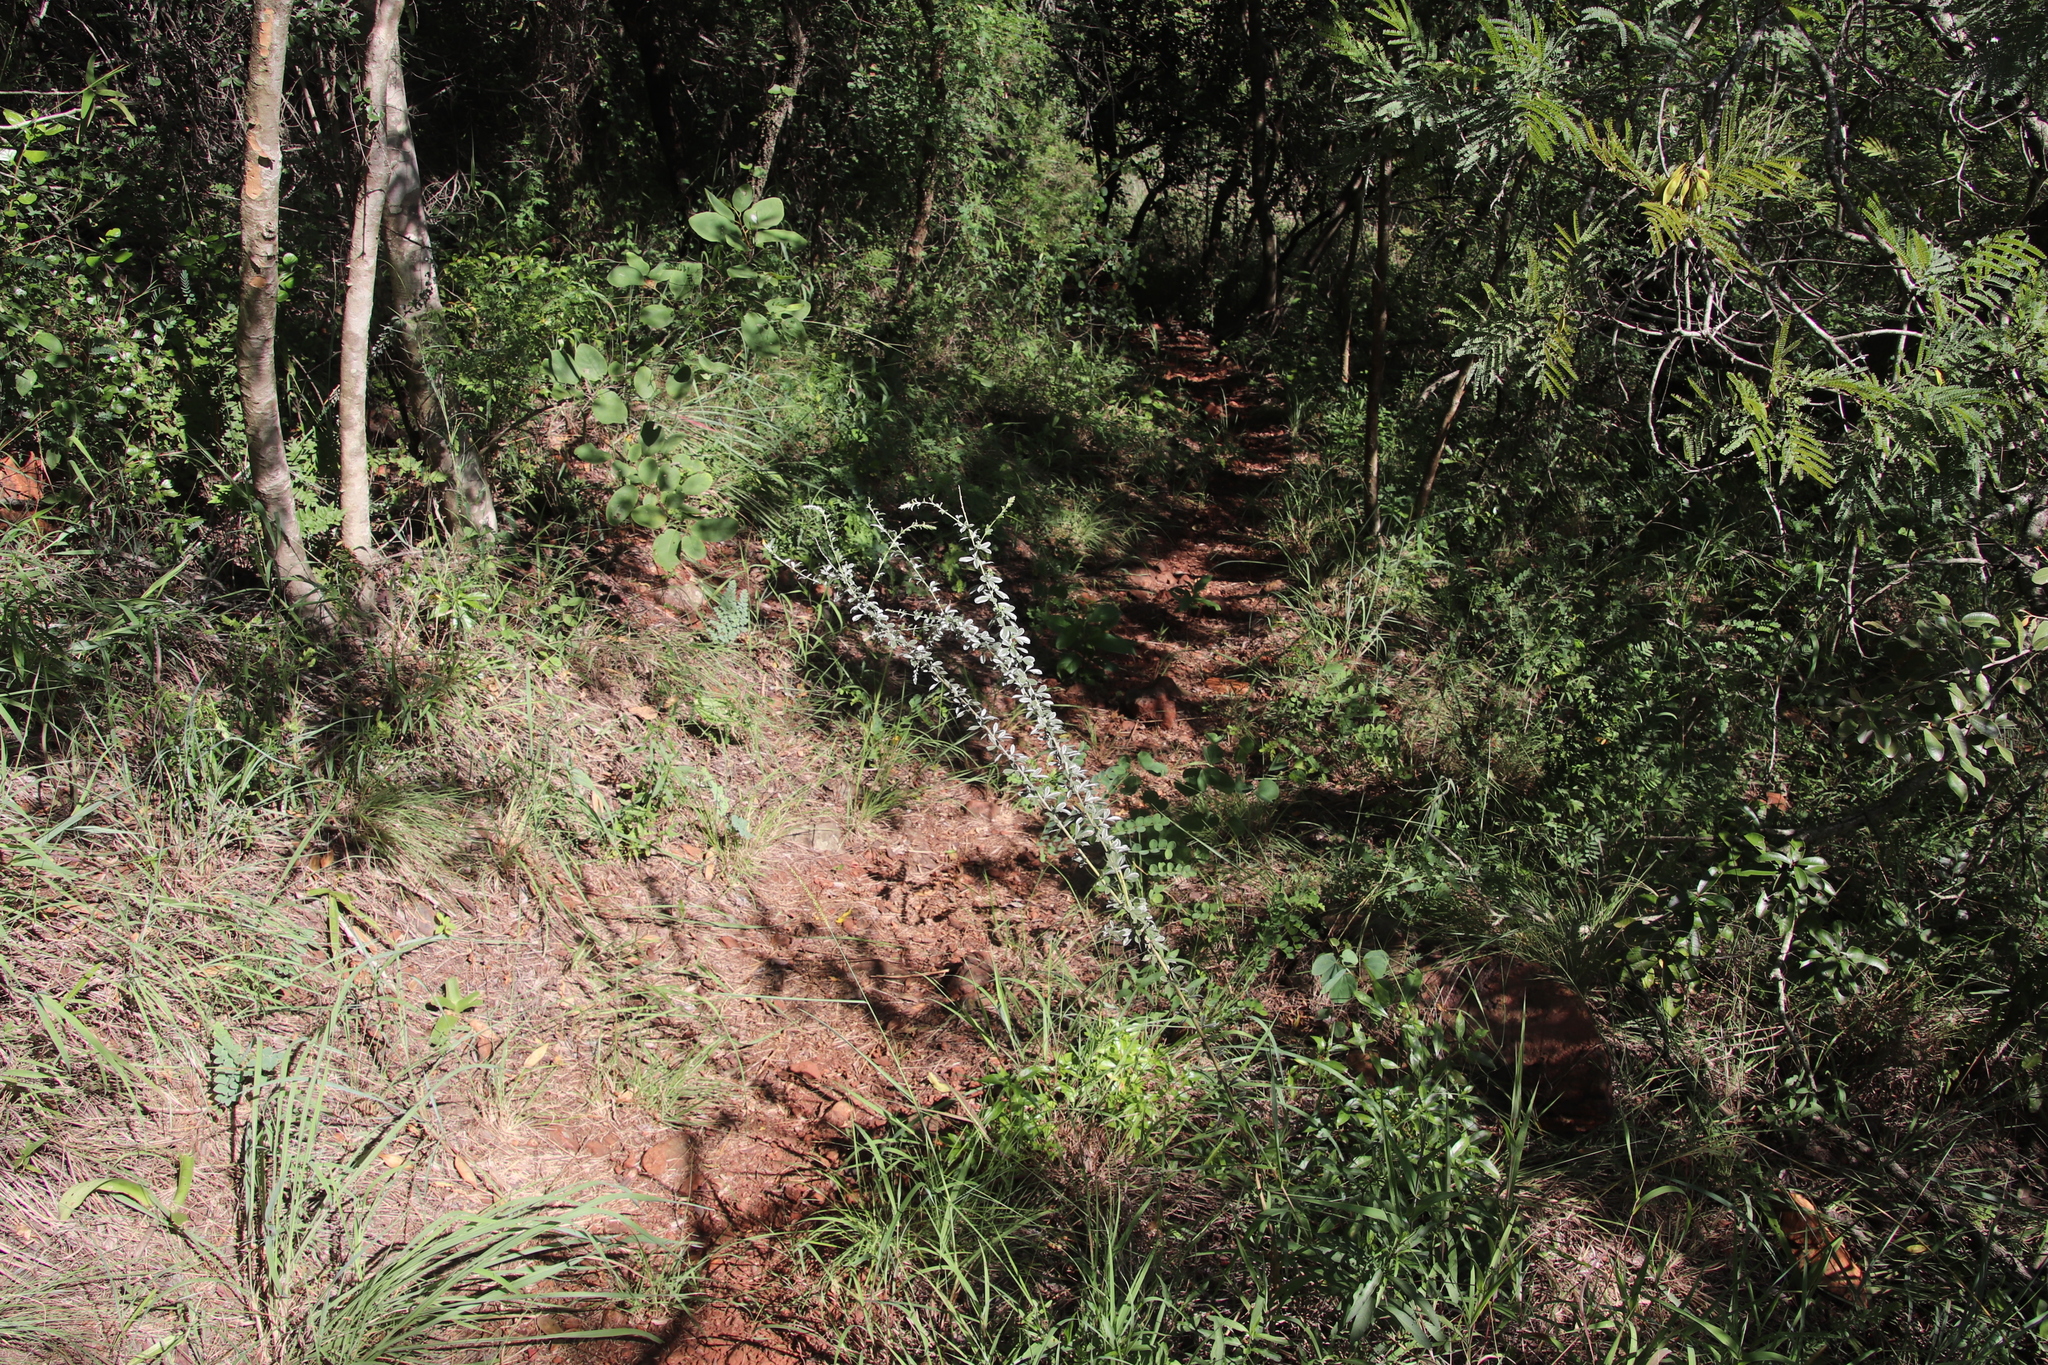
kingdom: Plantae
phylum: Tracheophyta
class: Magnoliopsida
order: Fabales
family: Fabaceae
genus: Pearsonia
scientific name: Pearsonia sessilifolia
